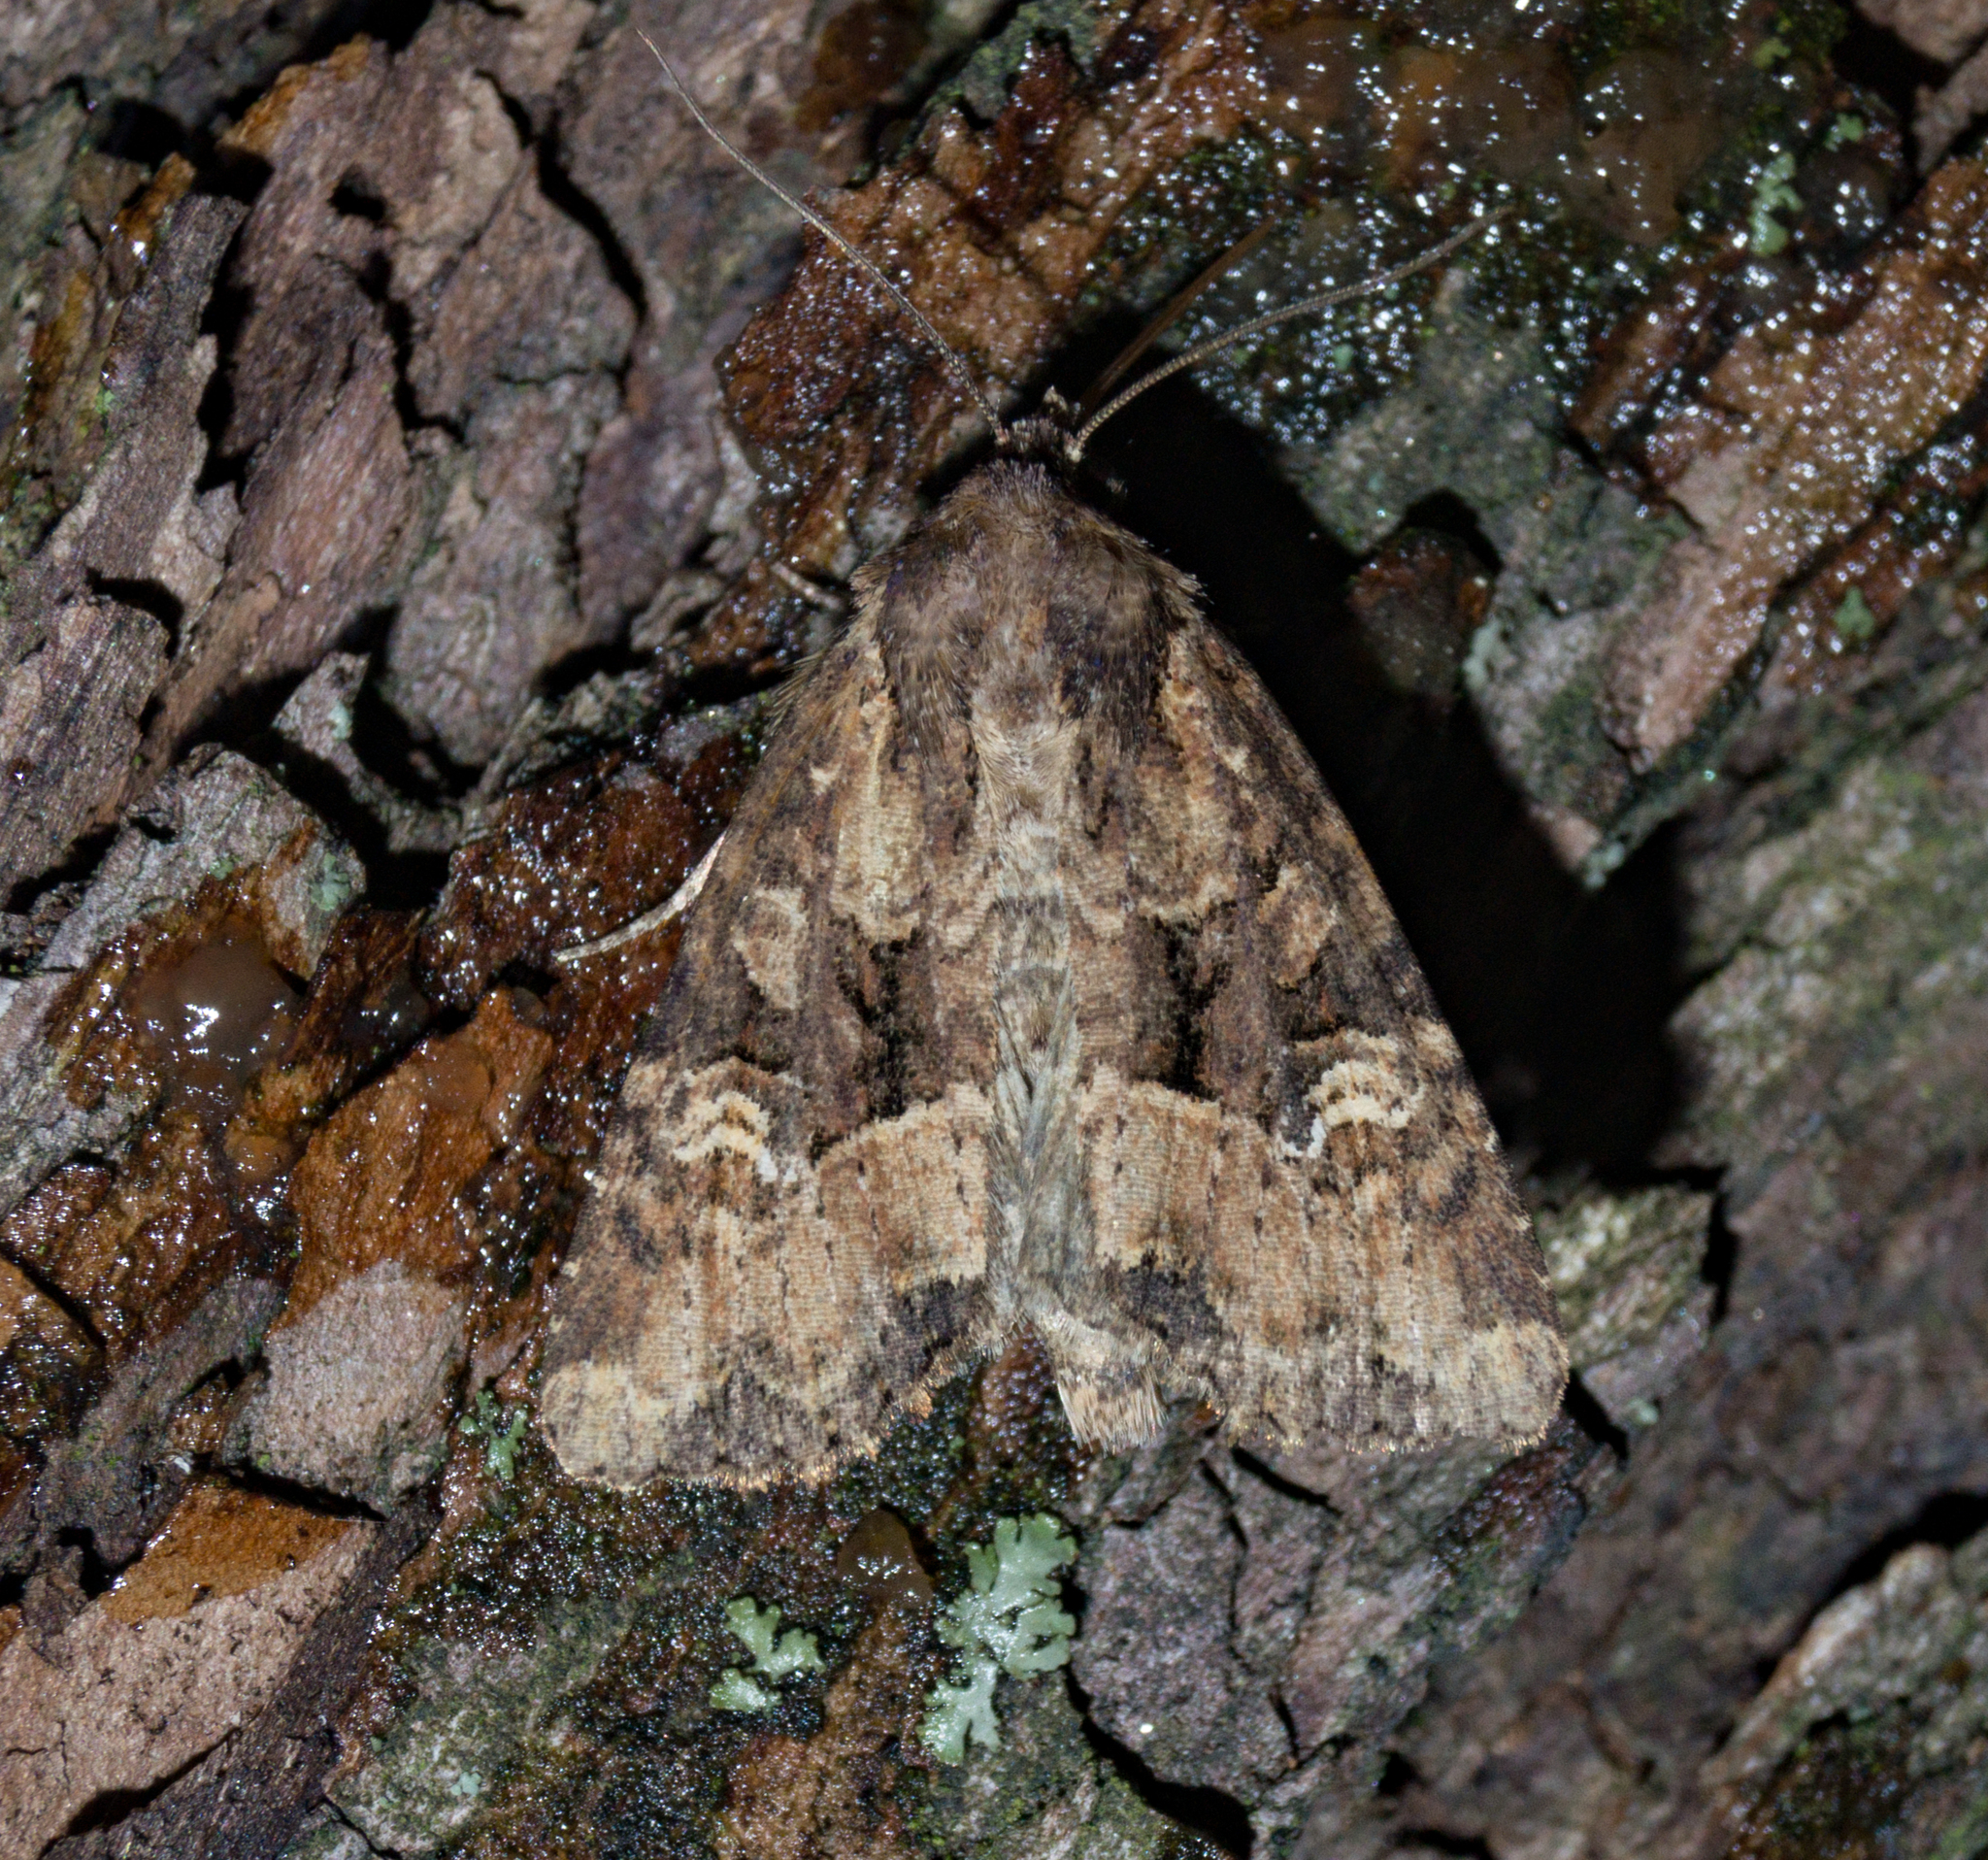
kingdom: Animalia
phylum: Arthropoda
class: Insecta
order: Lepidoptera
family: Noctuidae
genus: Mesapamea
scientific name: Mesapamea
